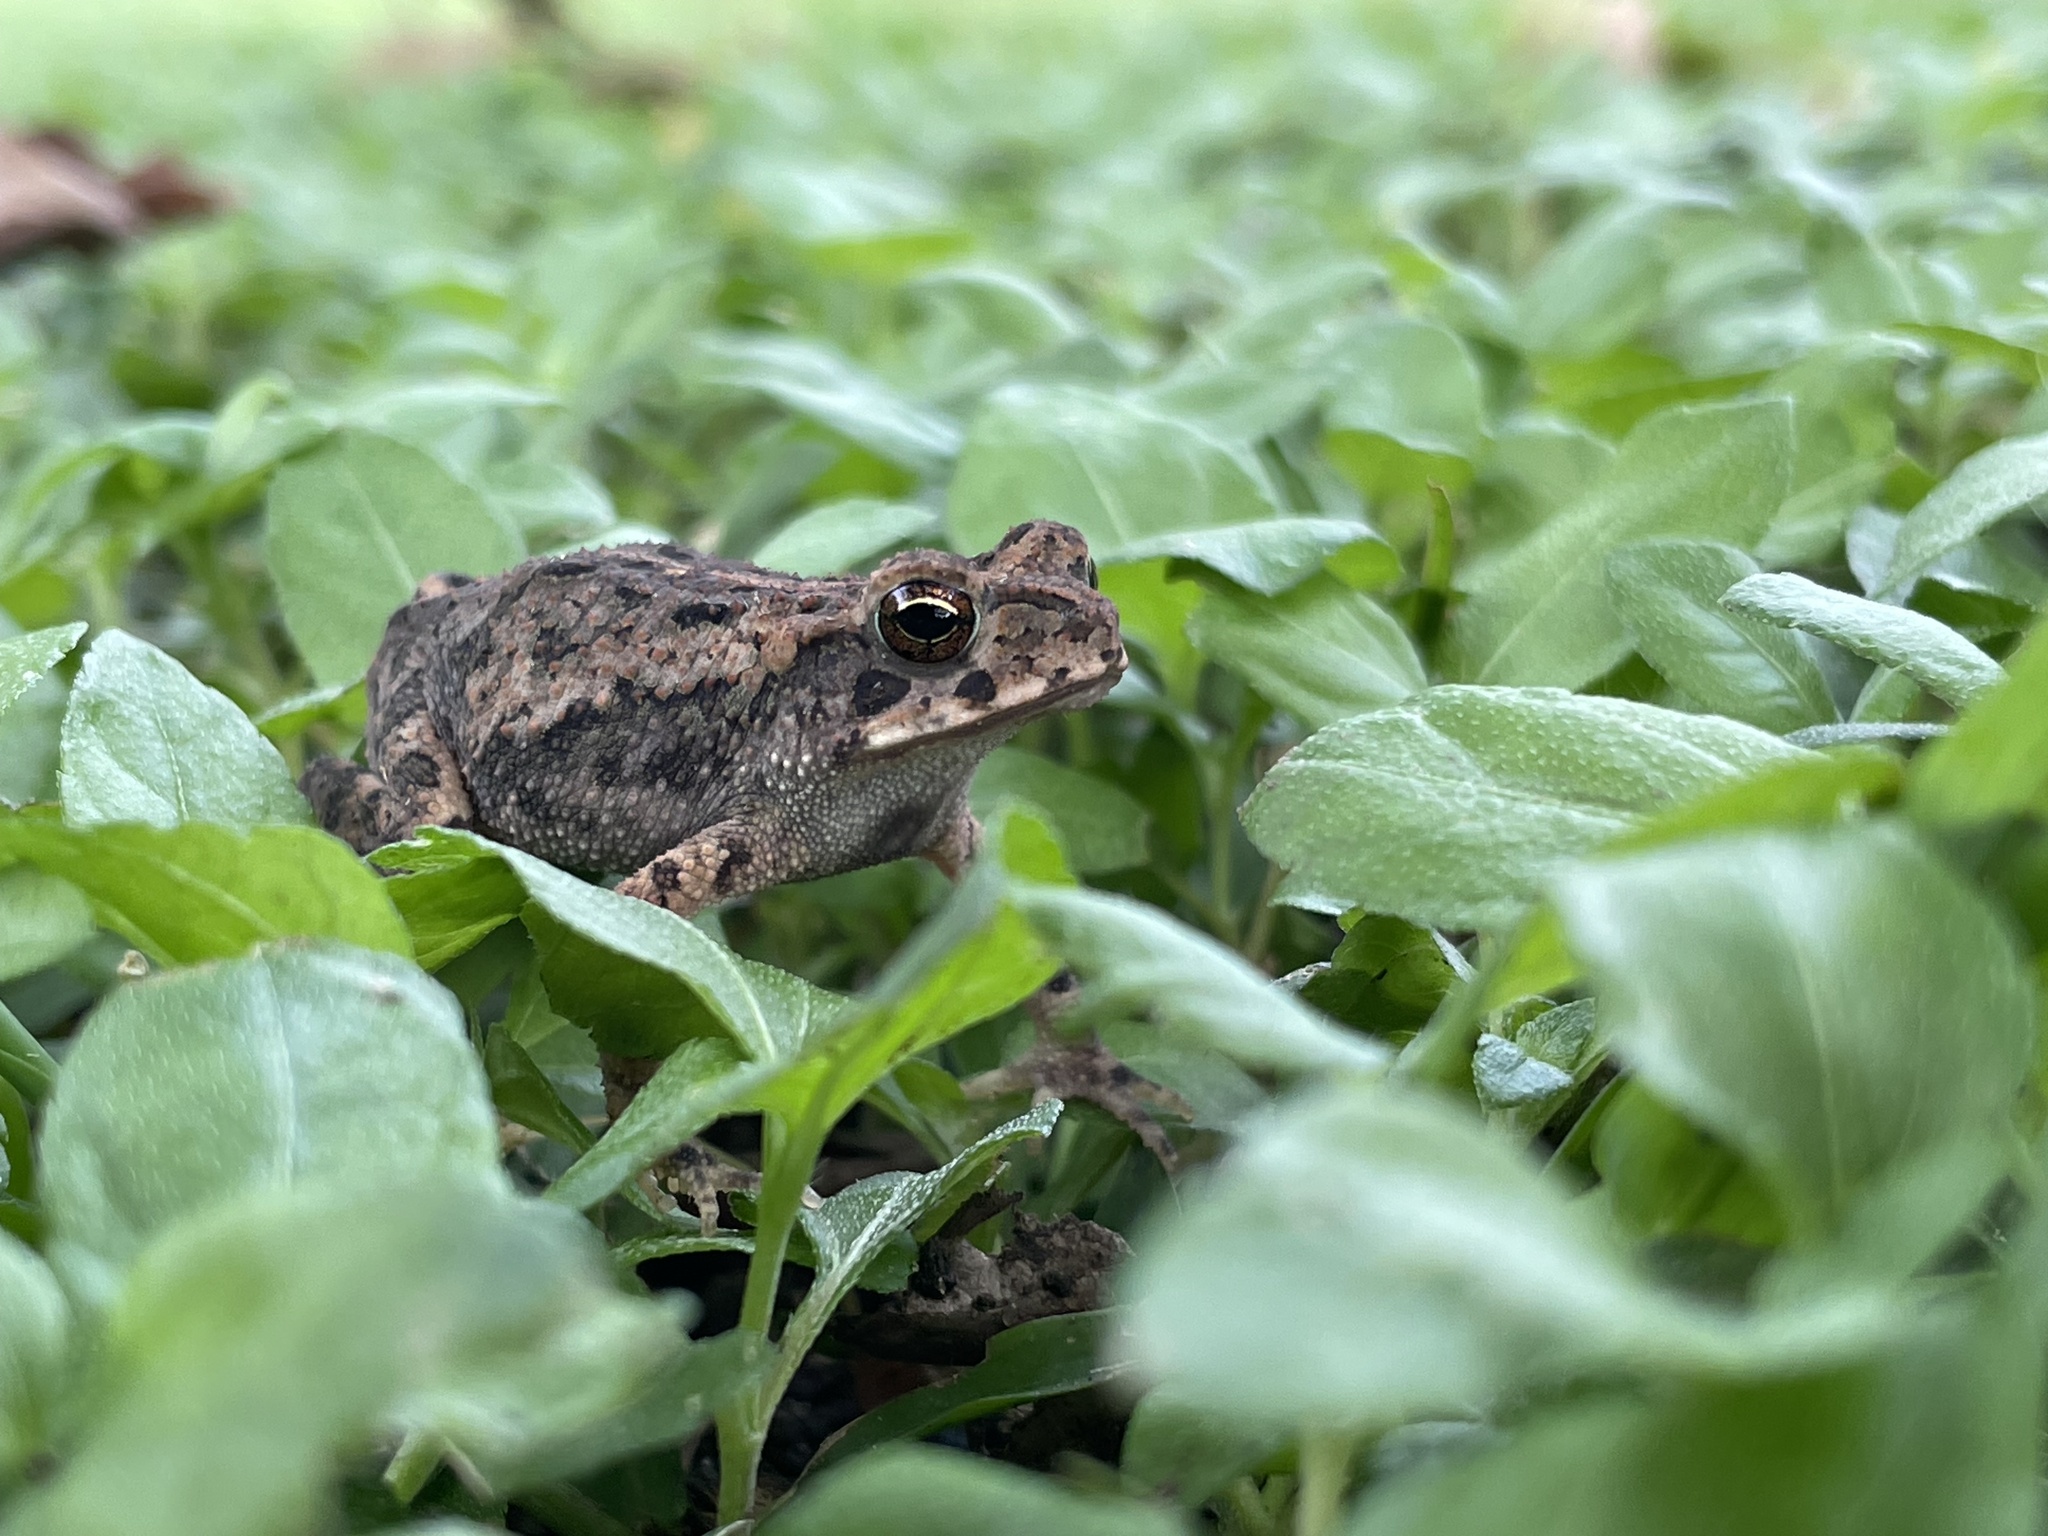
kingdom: Animalia
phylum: Chordata
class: Amphibia
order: Anura
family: Bufonidae
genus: Incilius
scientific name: Incilius nebulifer
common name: Gulf coast toad
